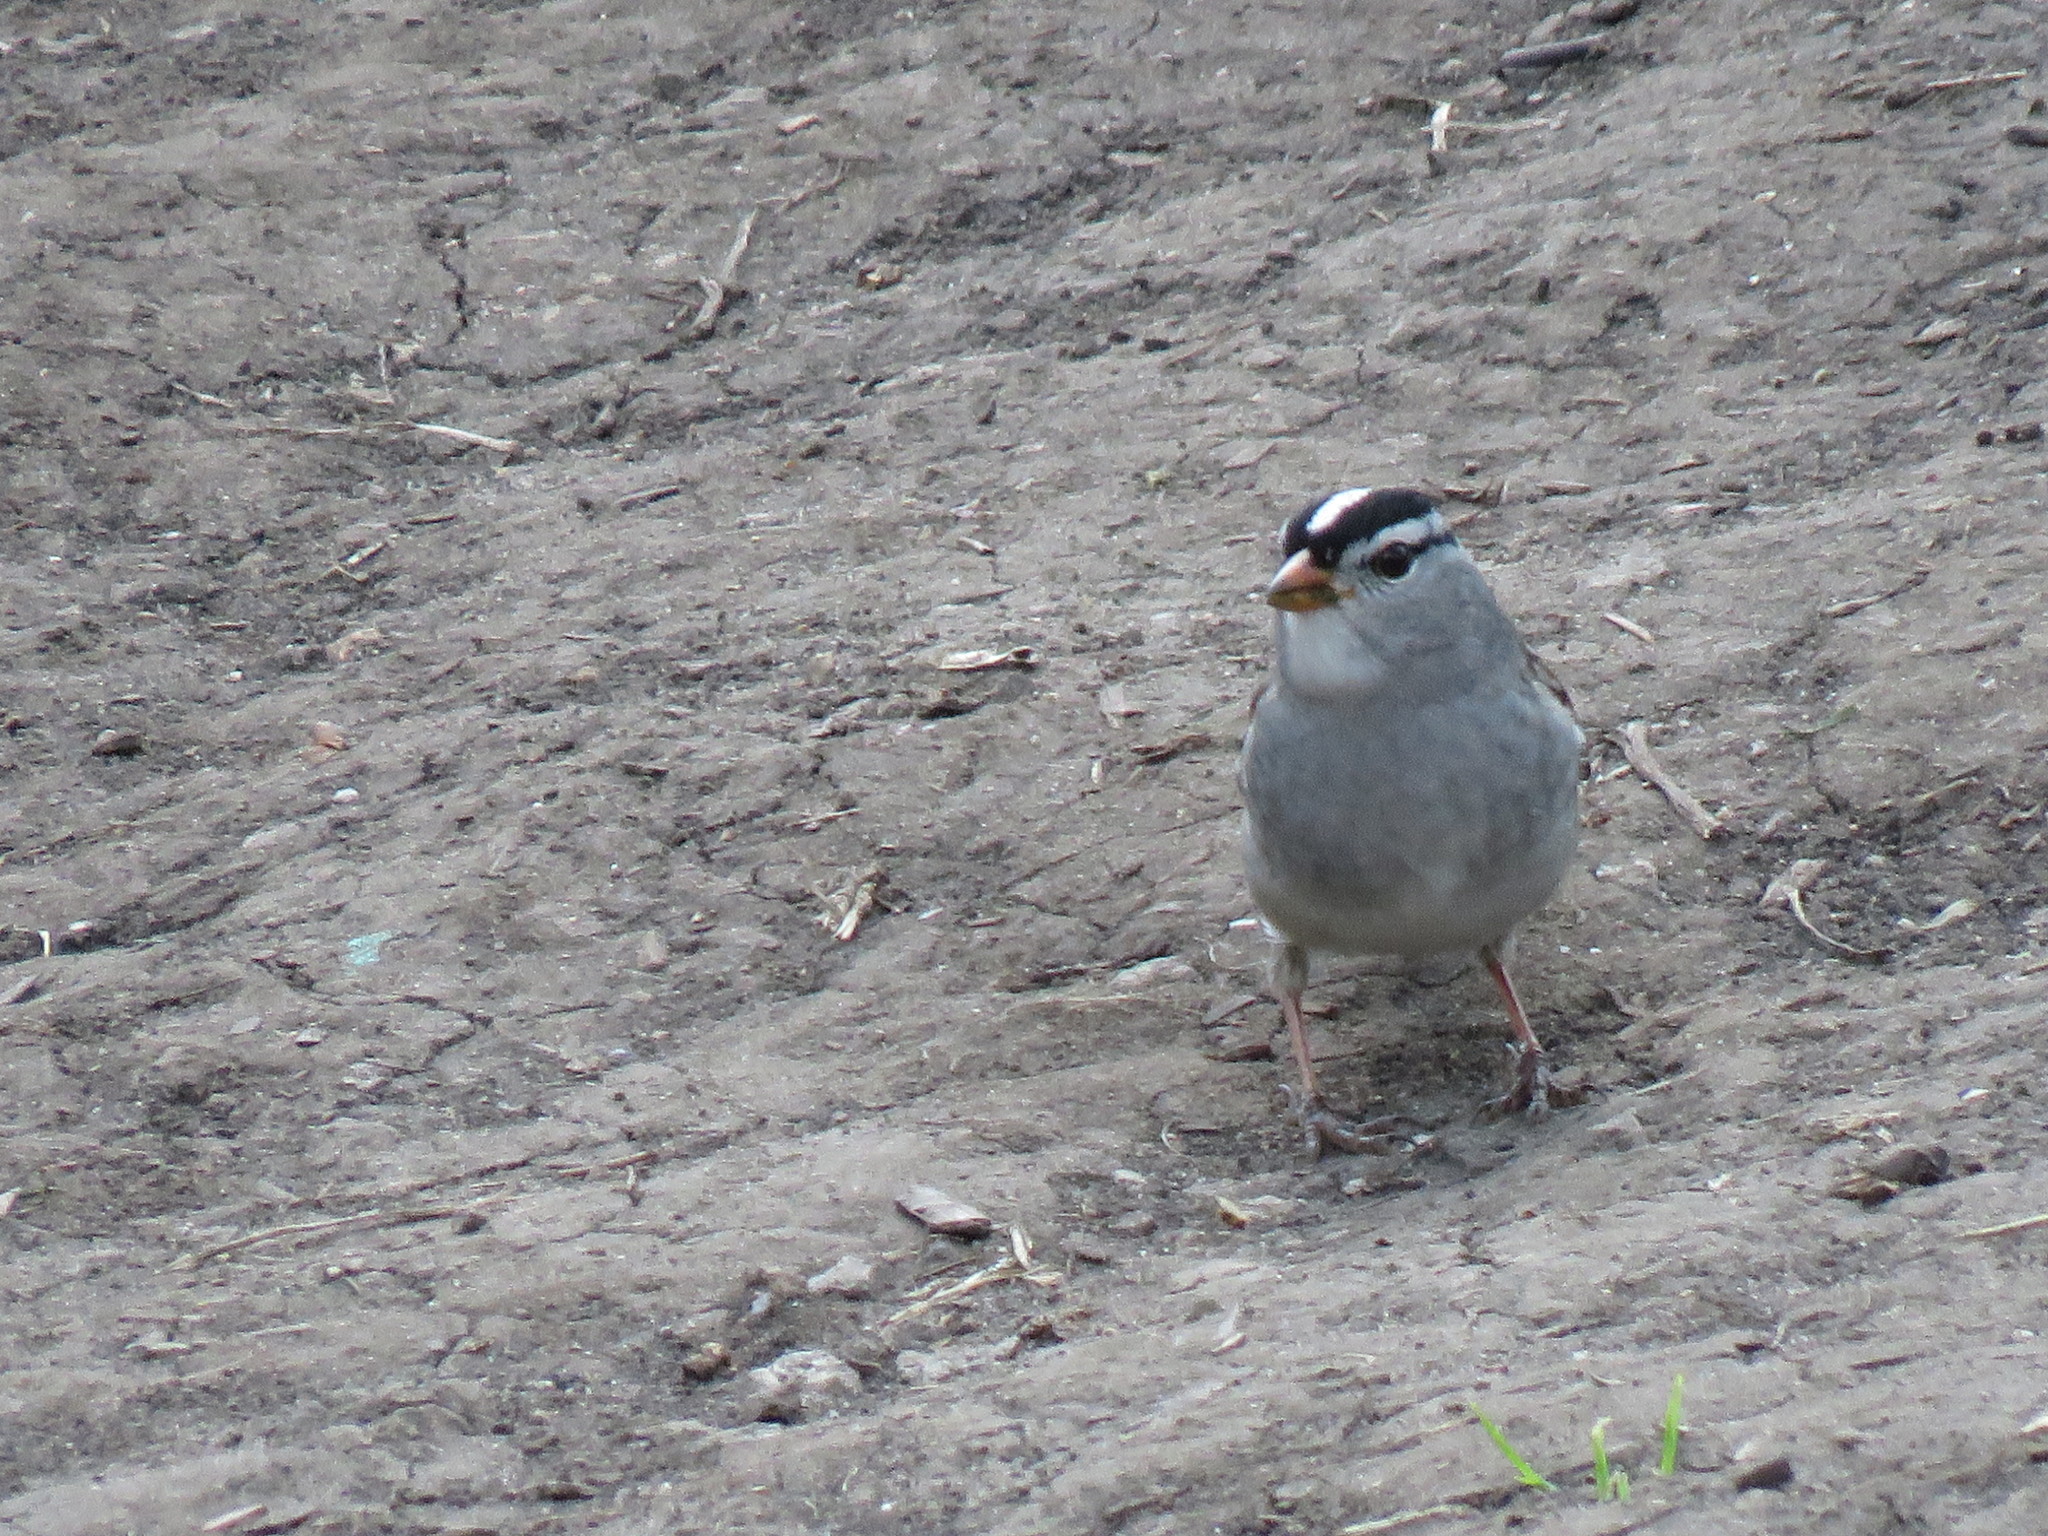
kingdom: Animalia
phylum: Chordata
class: Aves
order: Passeriformes
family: Passerellidae
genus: Zonotrichia
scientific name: Zonotrichia leucophrys
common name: White-crowned sparrow
